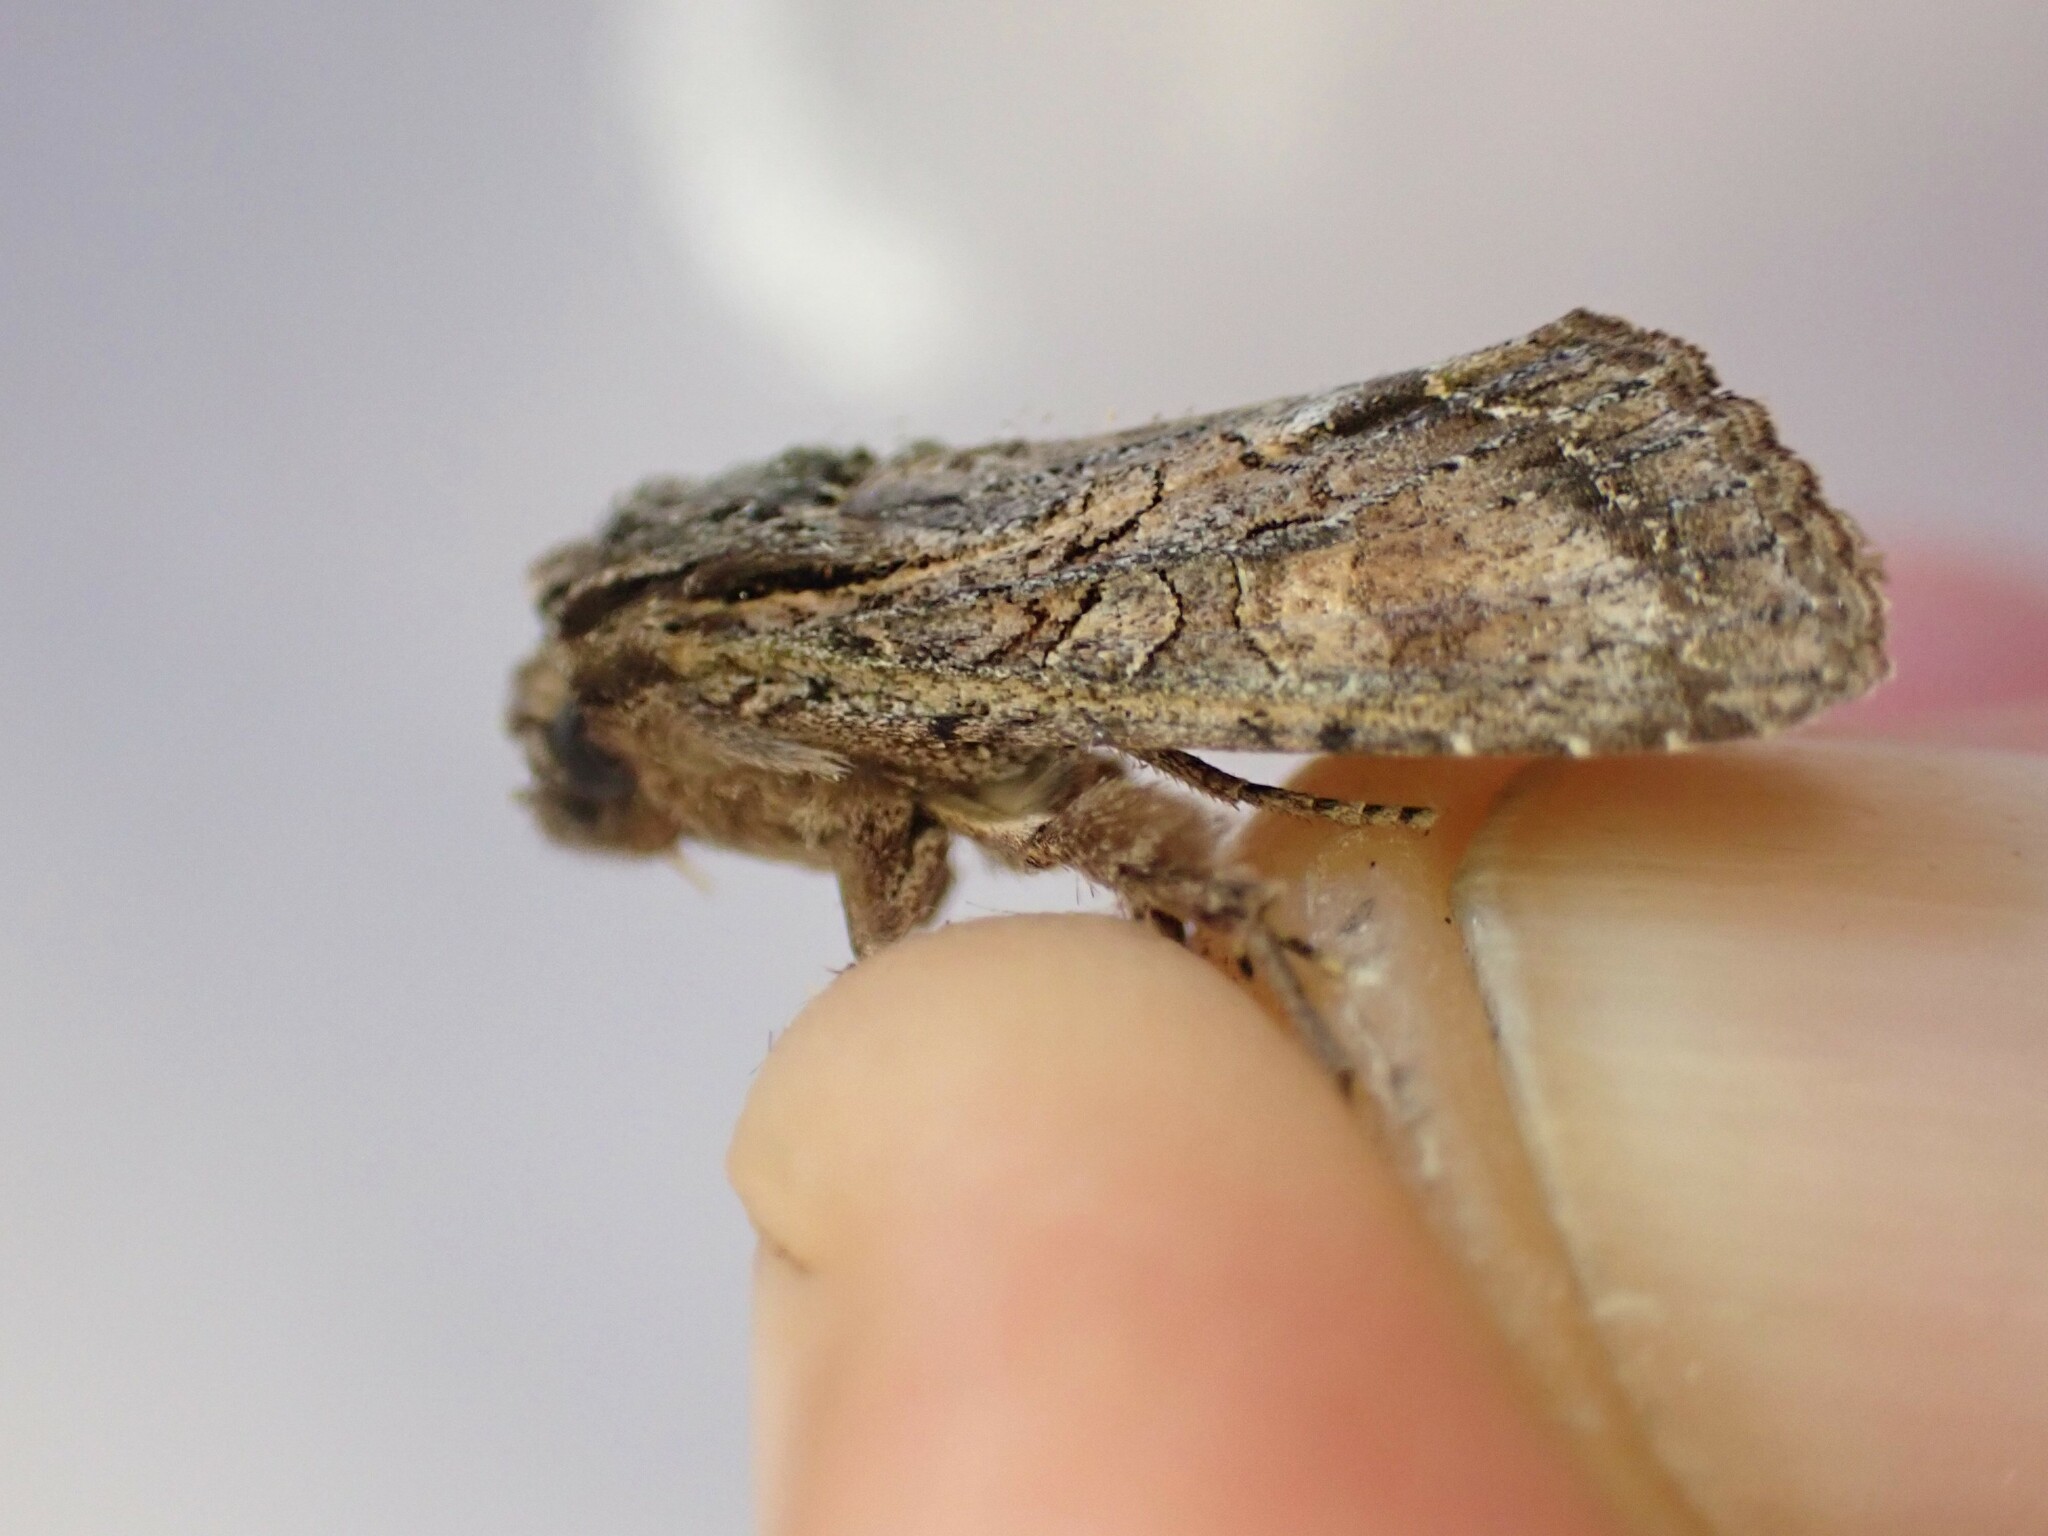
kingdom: Animalia
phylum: Arthropoda
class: Insecta
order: Lepidoptera
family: Noctuidae
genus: Ichneutica
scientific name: Ichneutica mutans
